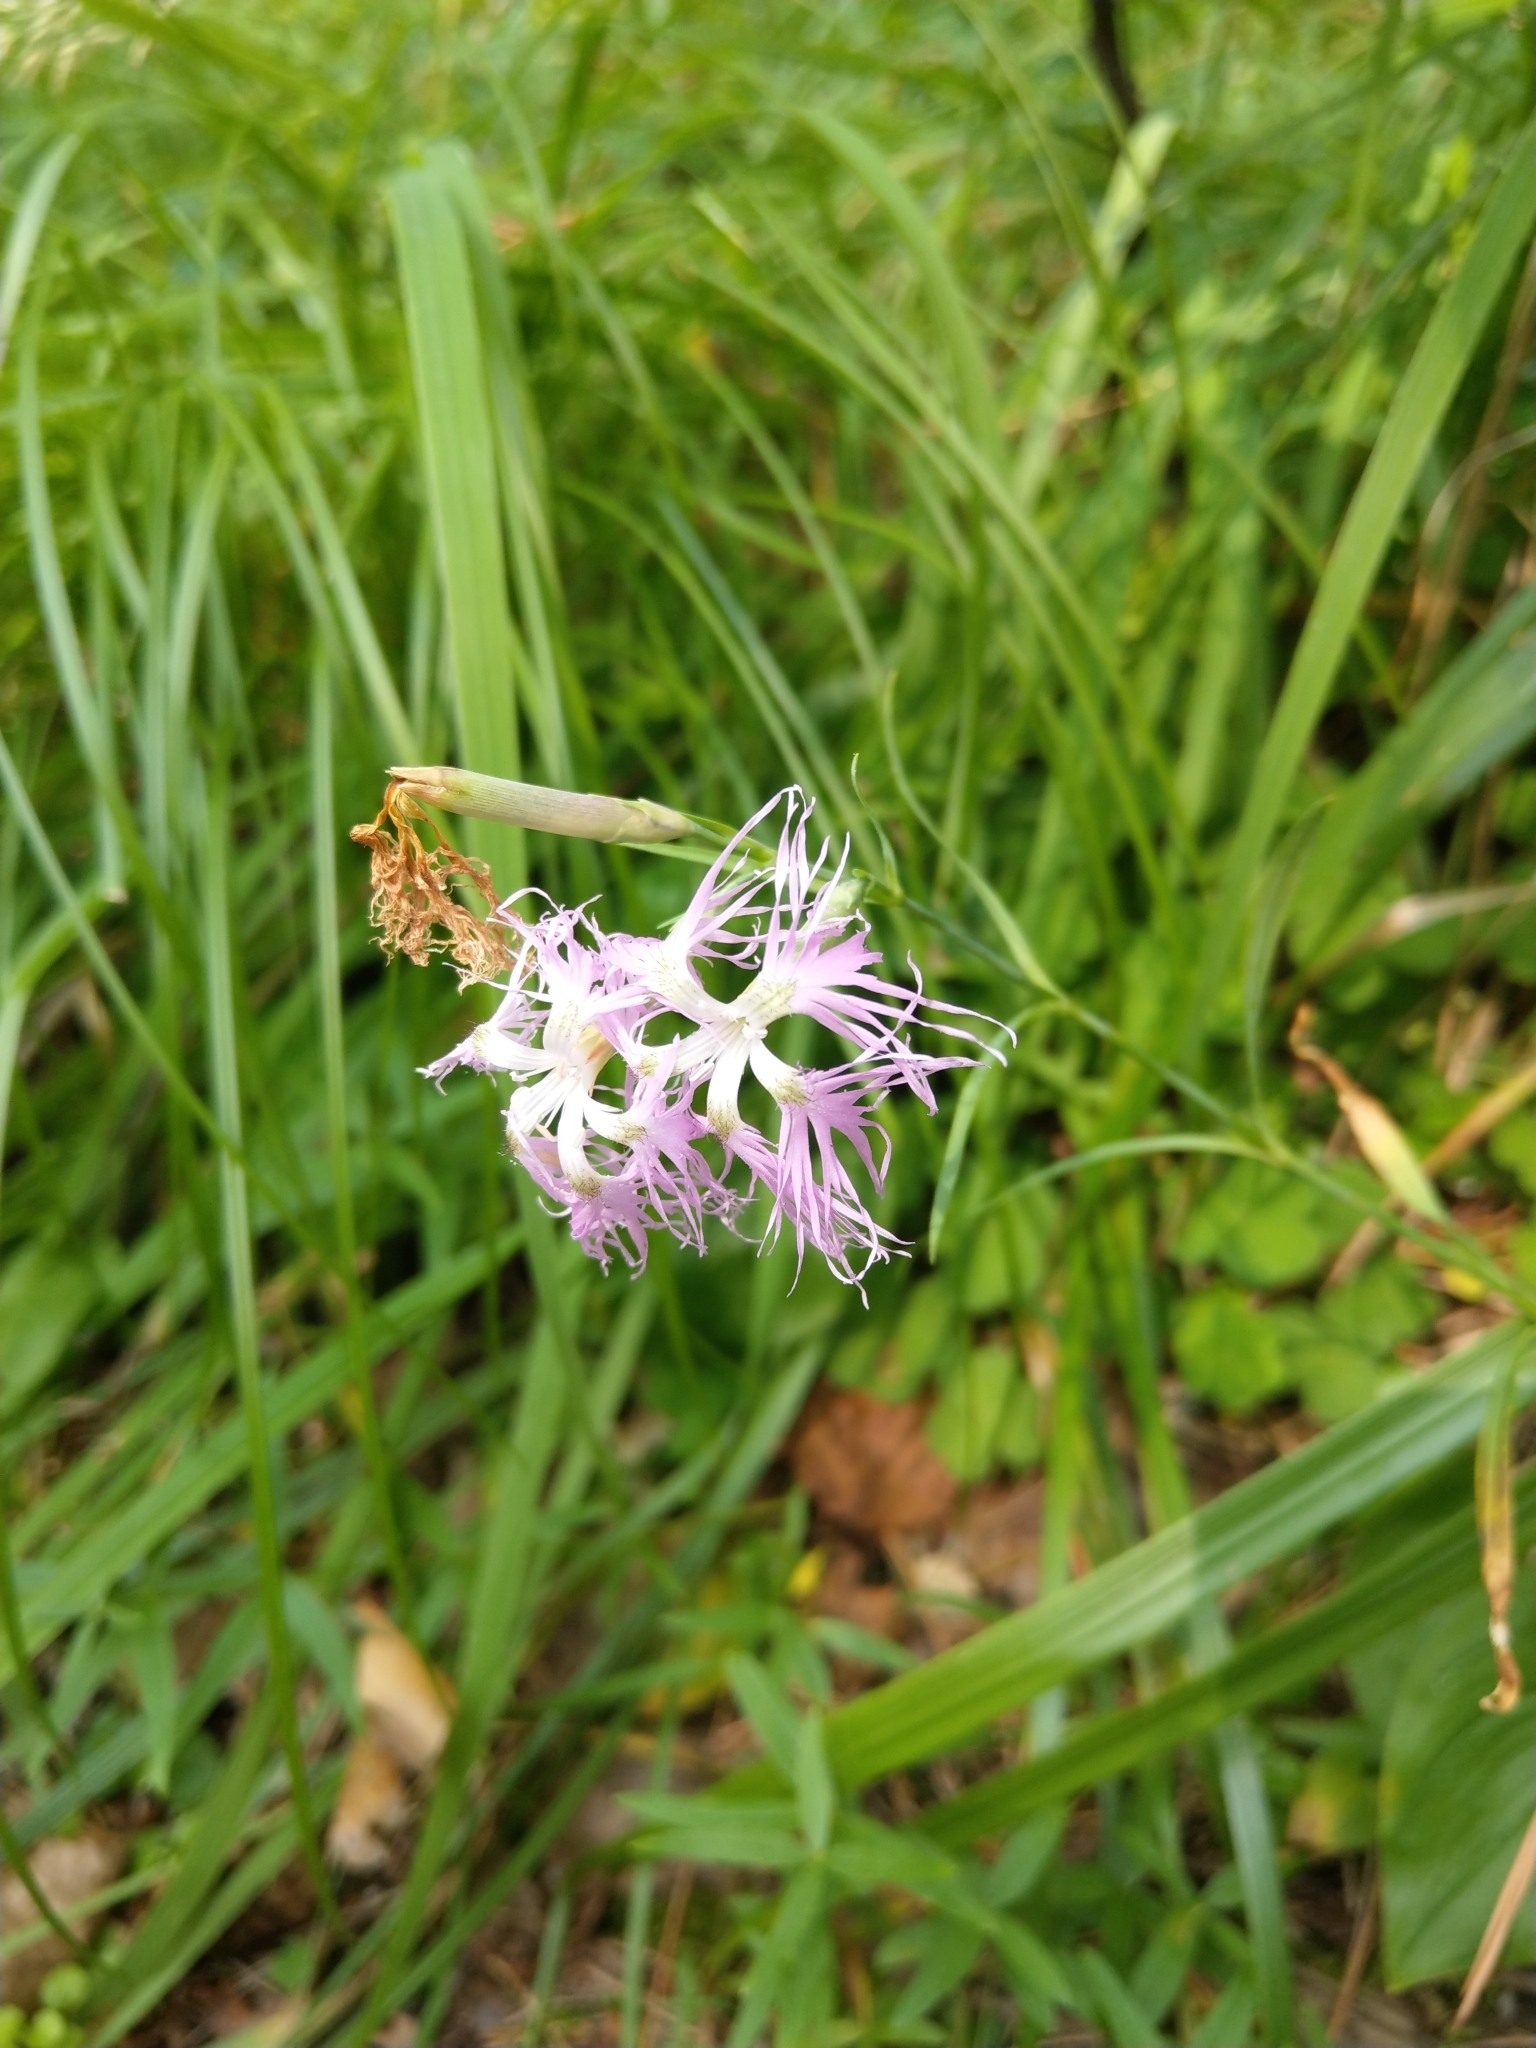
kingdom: Plantae
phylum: Tracheophyta
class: Magnoliopsida
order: Caryophyllales
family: Caryophyllaceae
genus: Dianthus
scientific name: Dianthus superbus
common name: Fringed pink
